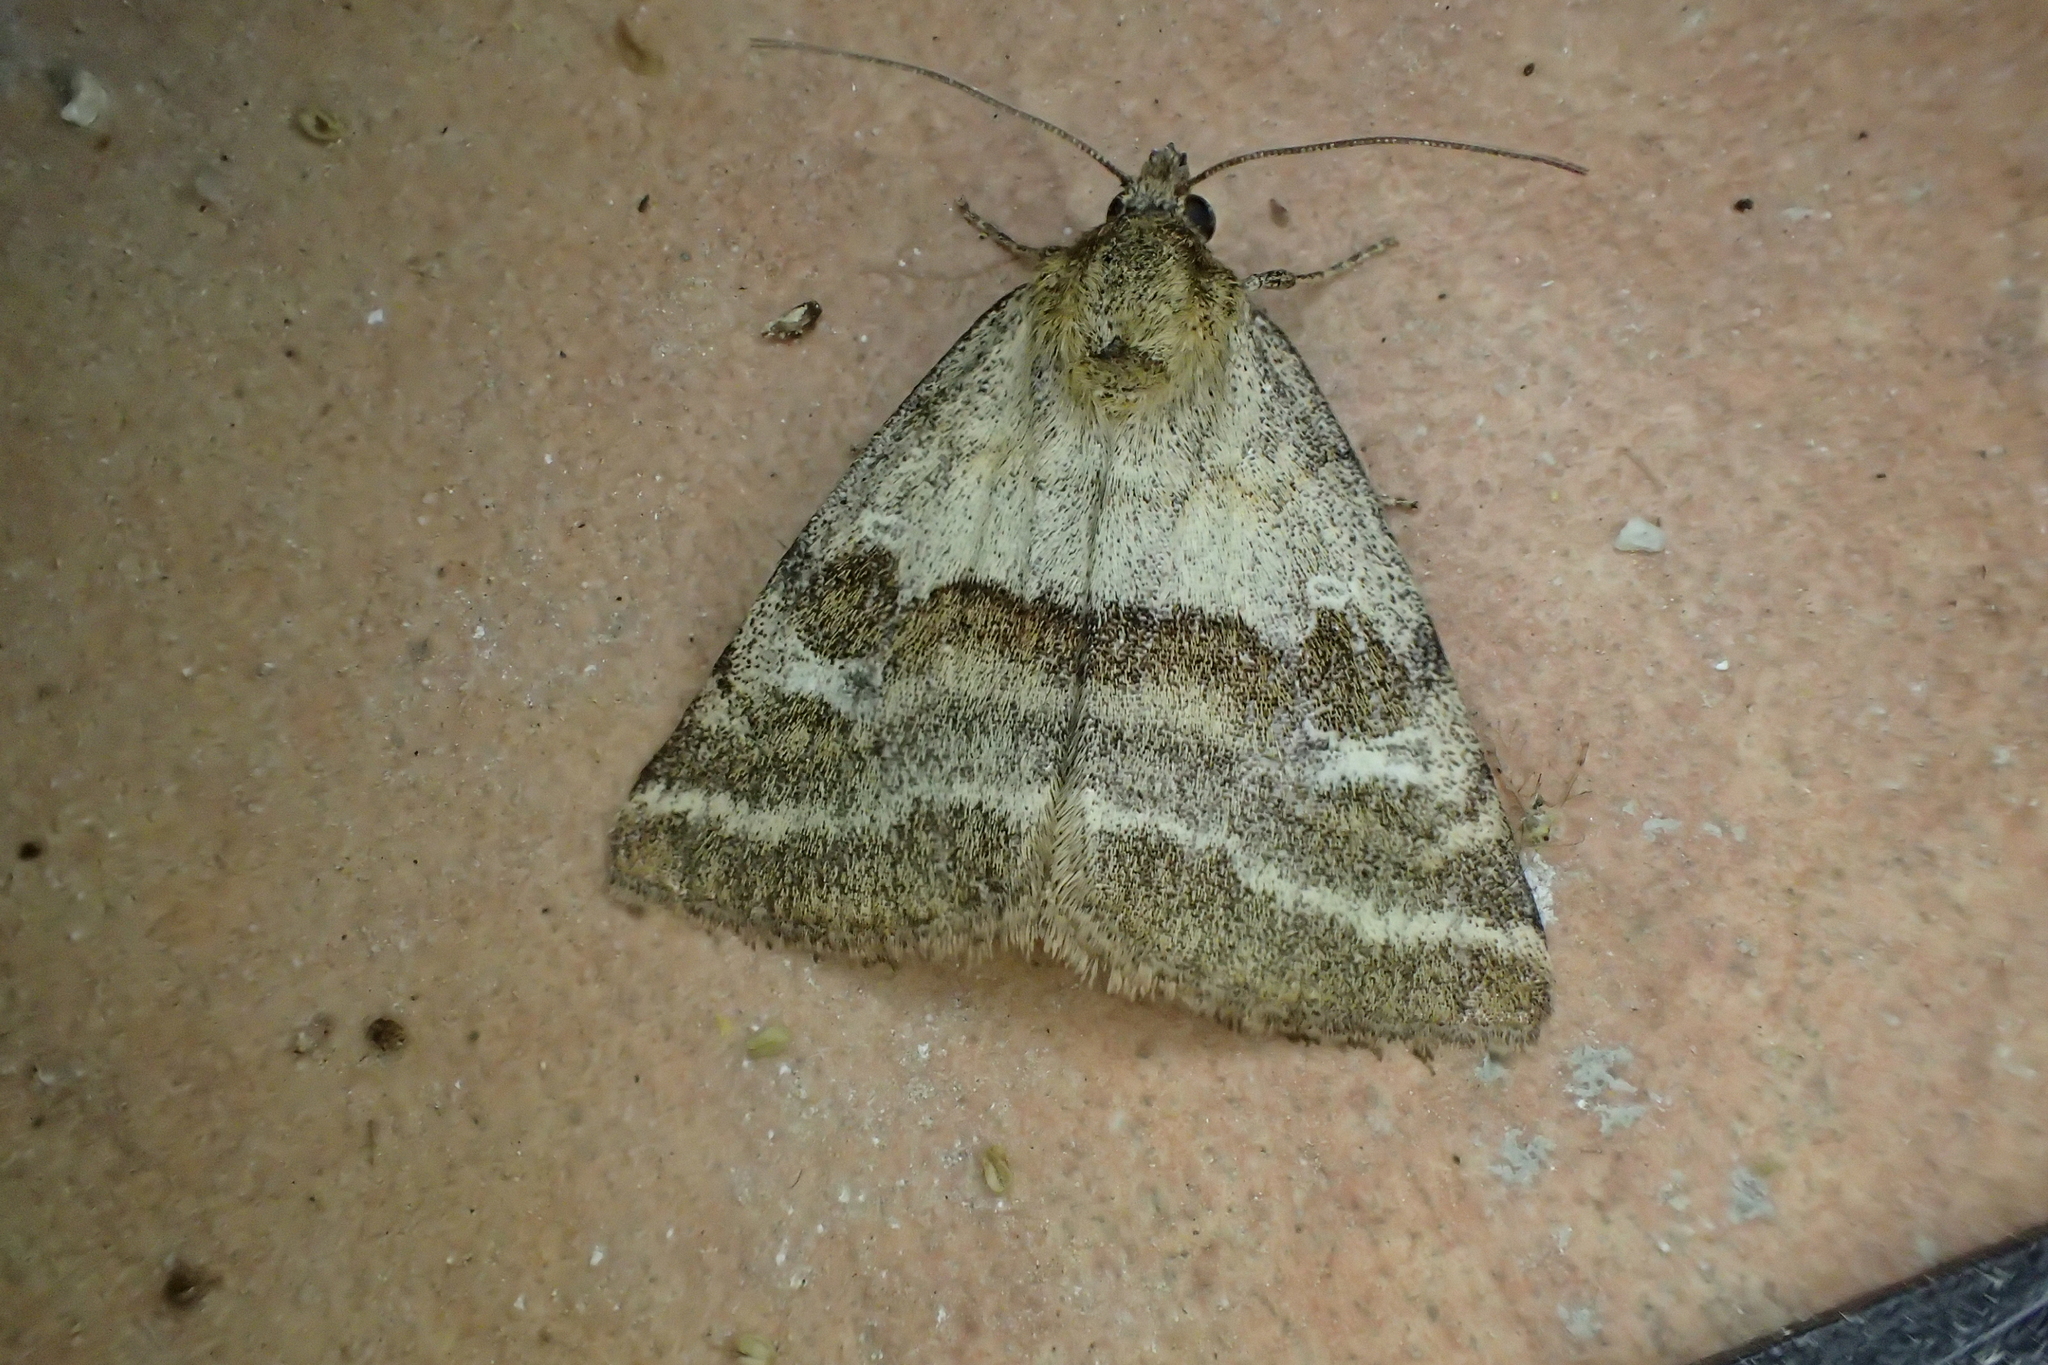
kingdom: Animalia
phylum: Arthropoda
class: Insecta
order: Lepidoptera
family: Noctuidae
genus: Synthymia
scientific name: Synthymia fixa
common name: Goldwing
